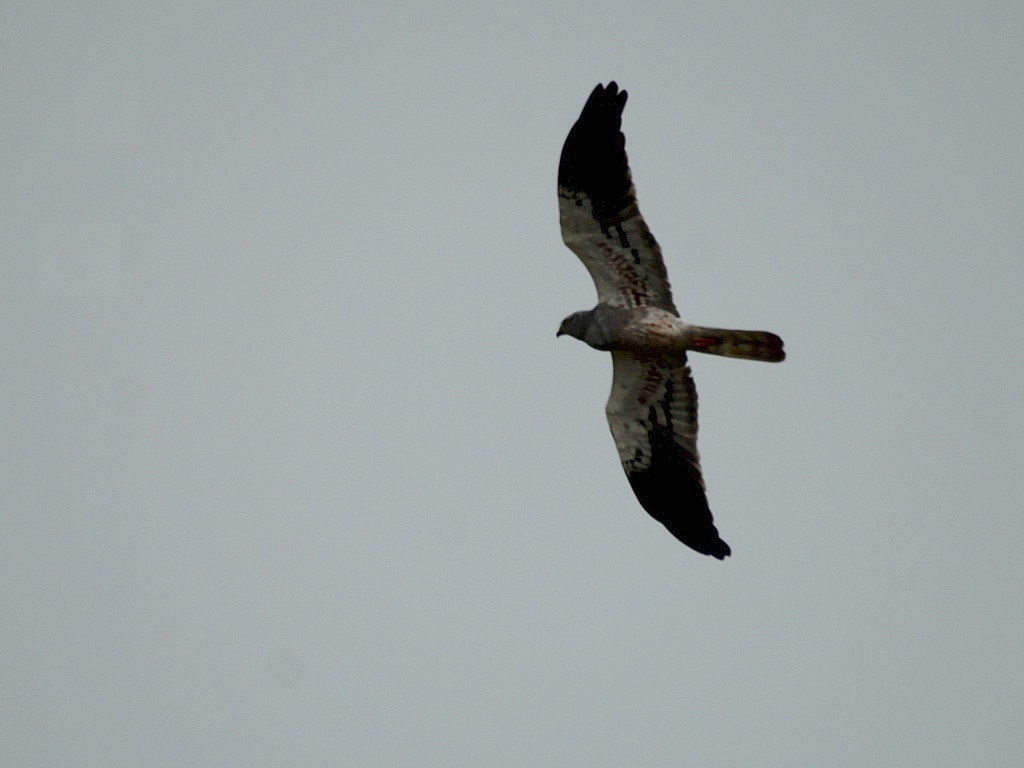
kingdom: Animalia
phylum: Chordata
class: Aves
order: Accipitriformes
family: Accipitridae
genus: Circus
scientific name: Circus pygargus
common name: Montagu's harrier
